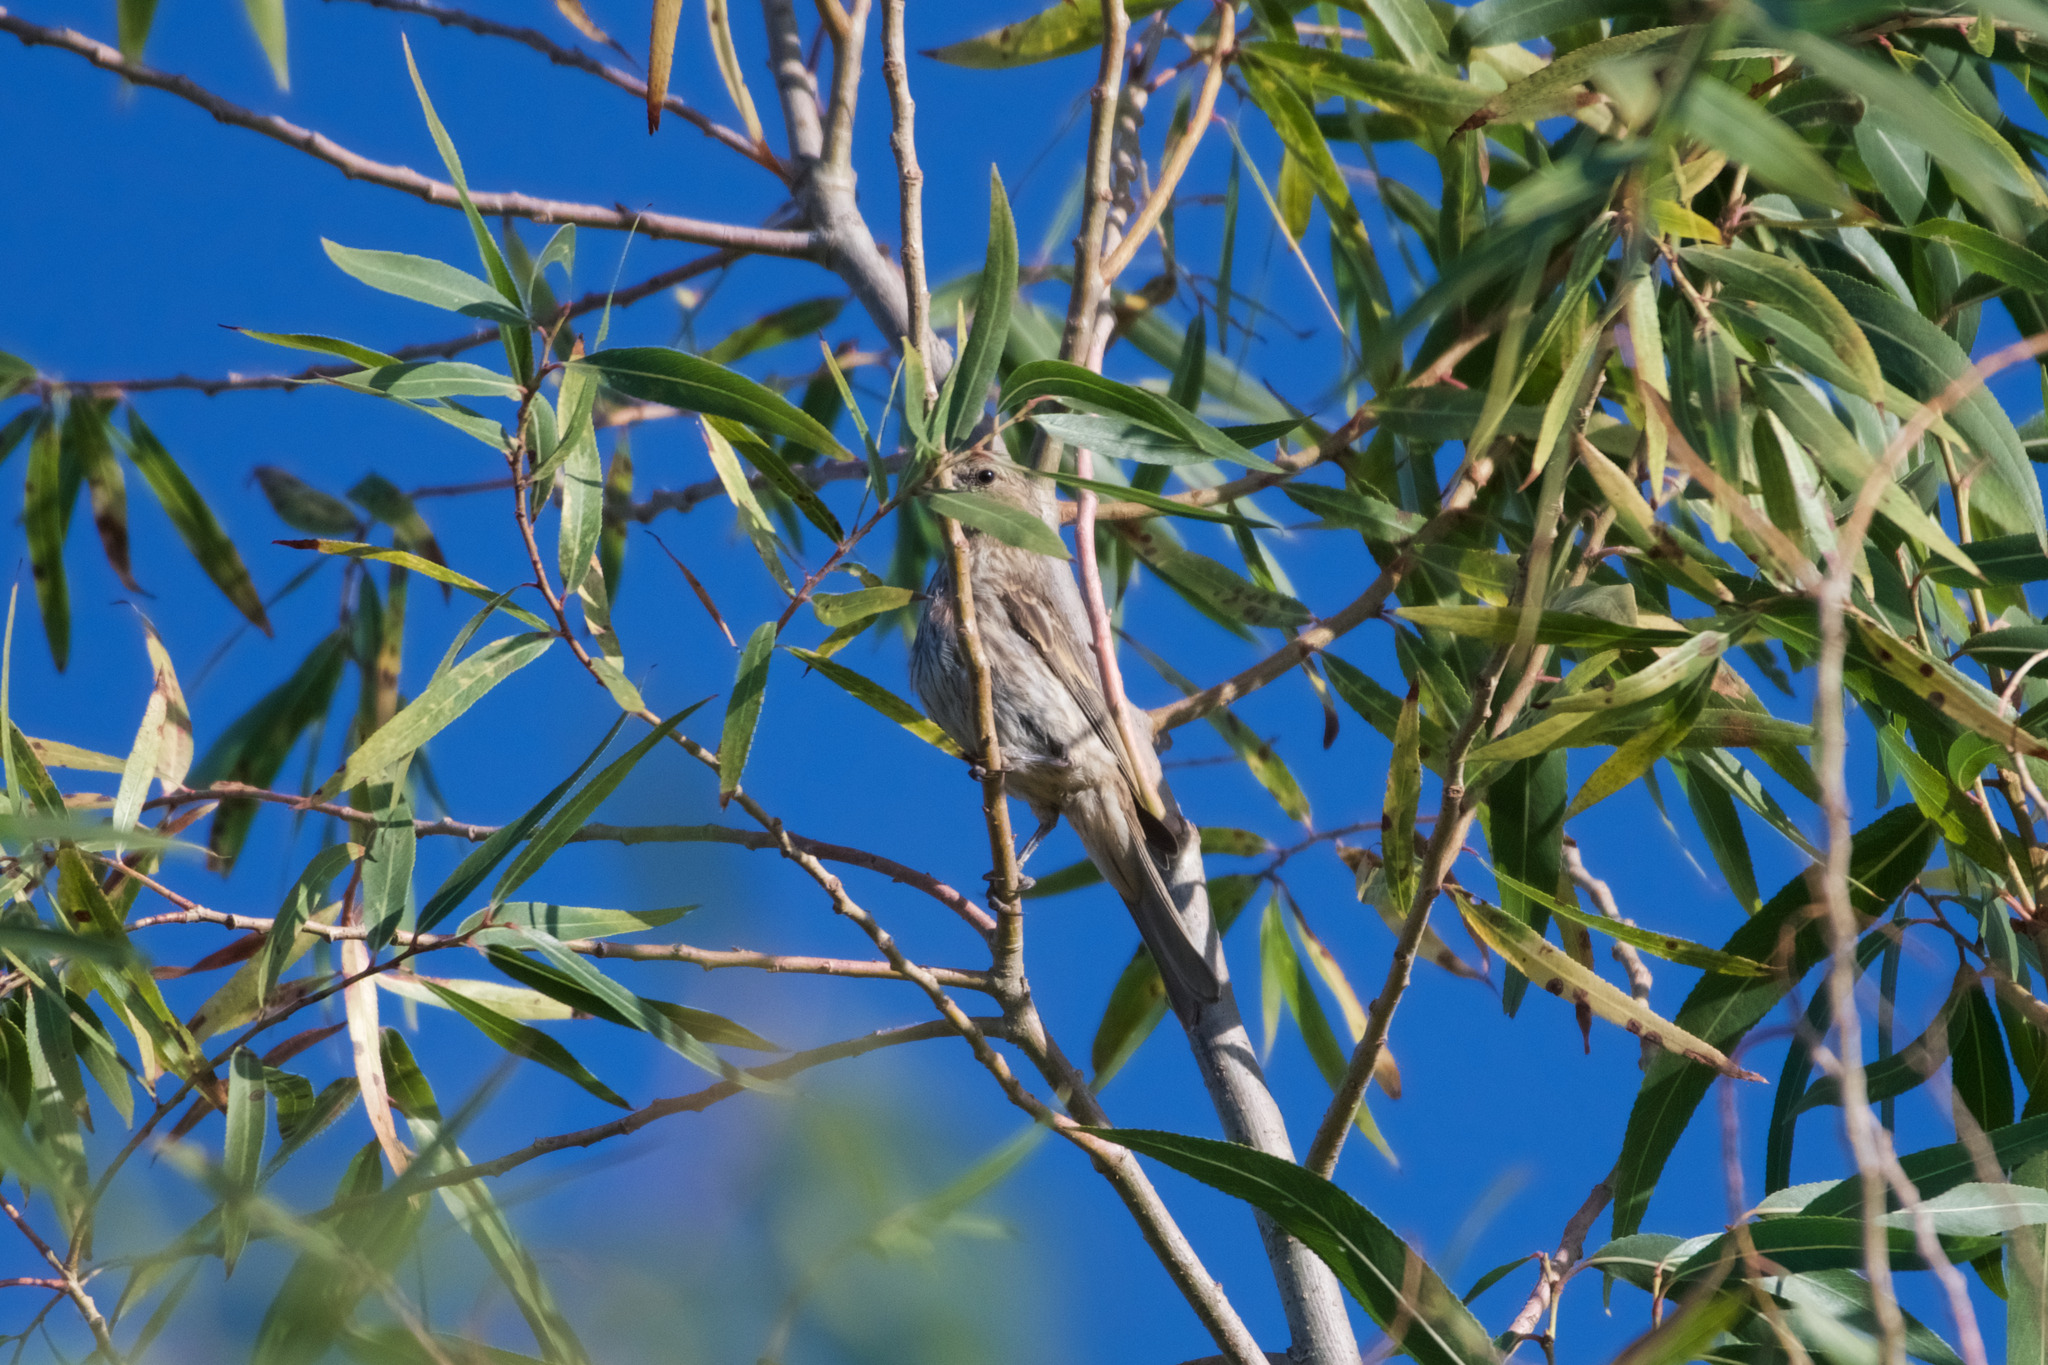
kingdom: Animalia
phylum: Chordata
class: Aves
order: Passeriformes
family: Fringillidae
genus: Haemorhous
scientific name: Haemorhous mexicanus
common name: House finch
